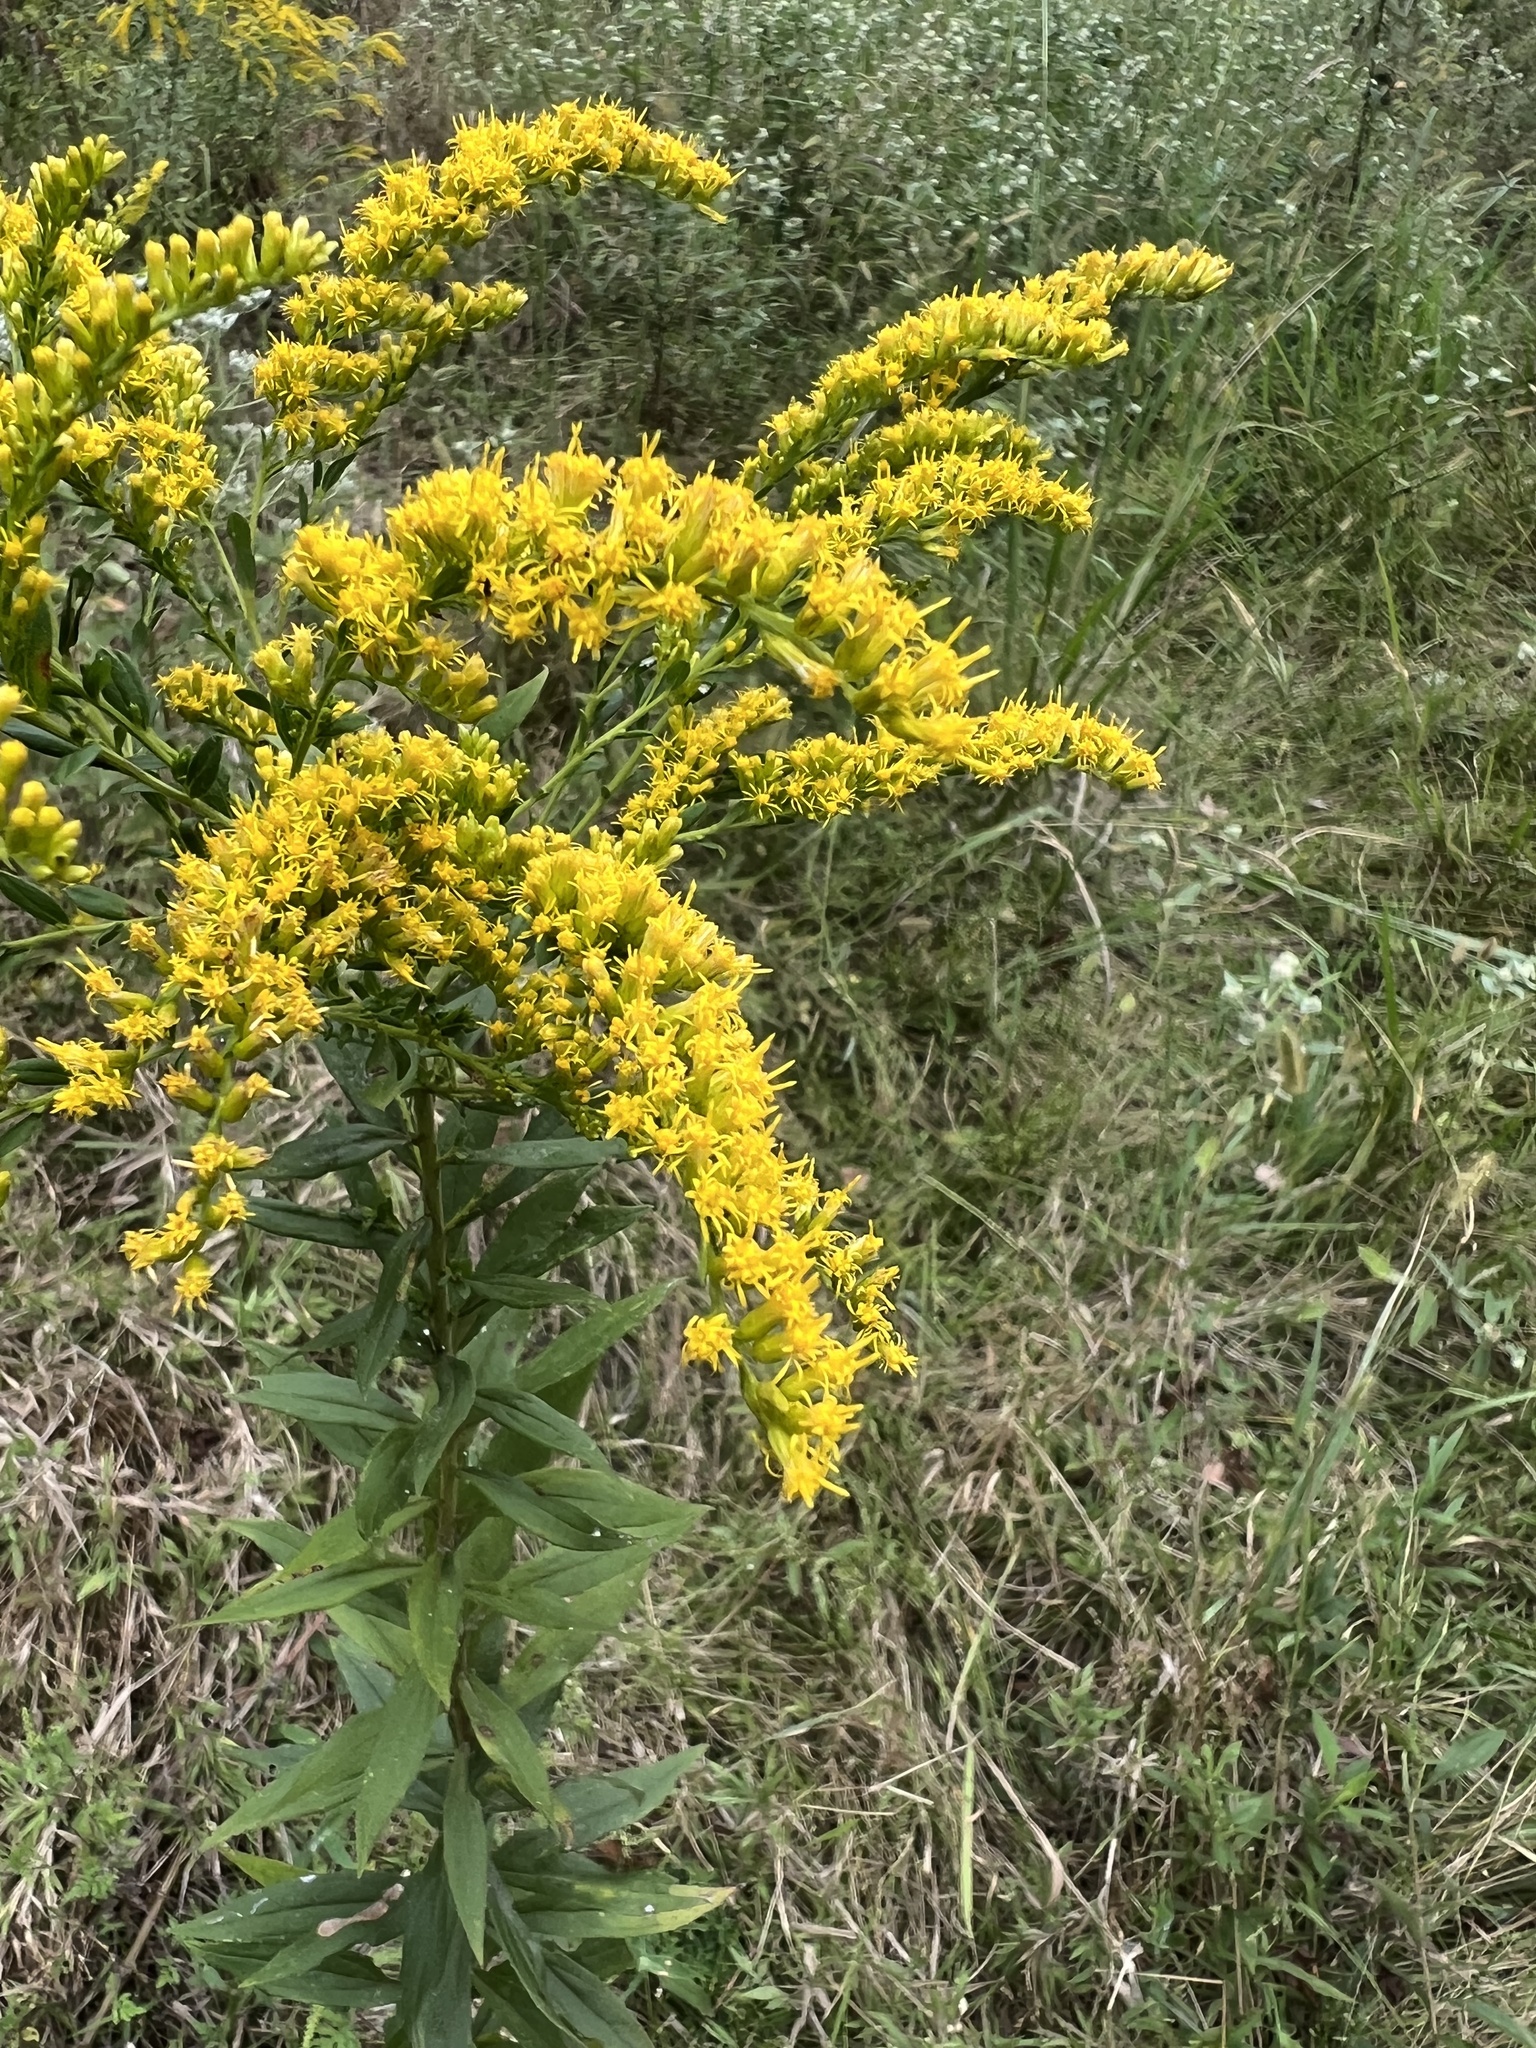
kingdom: Plantae
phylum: Tracheophyta
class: Magnoliopsida
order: Asterales
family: Asteraceae
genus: Solidago
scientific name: Solidago altissima
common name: Late goldenrod
